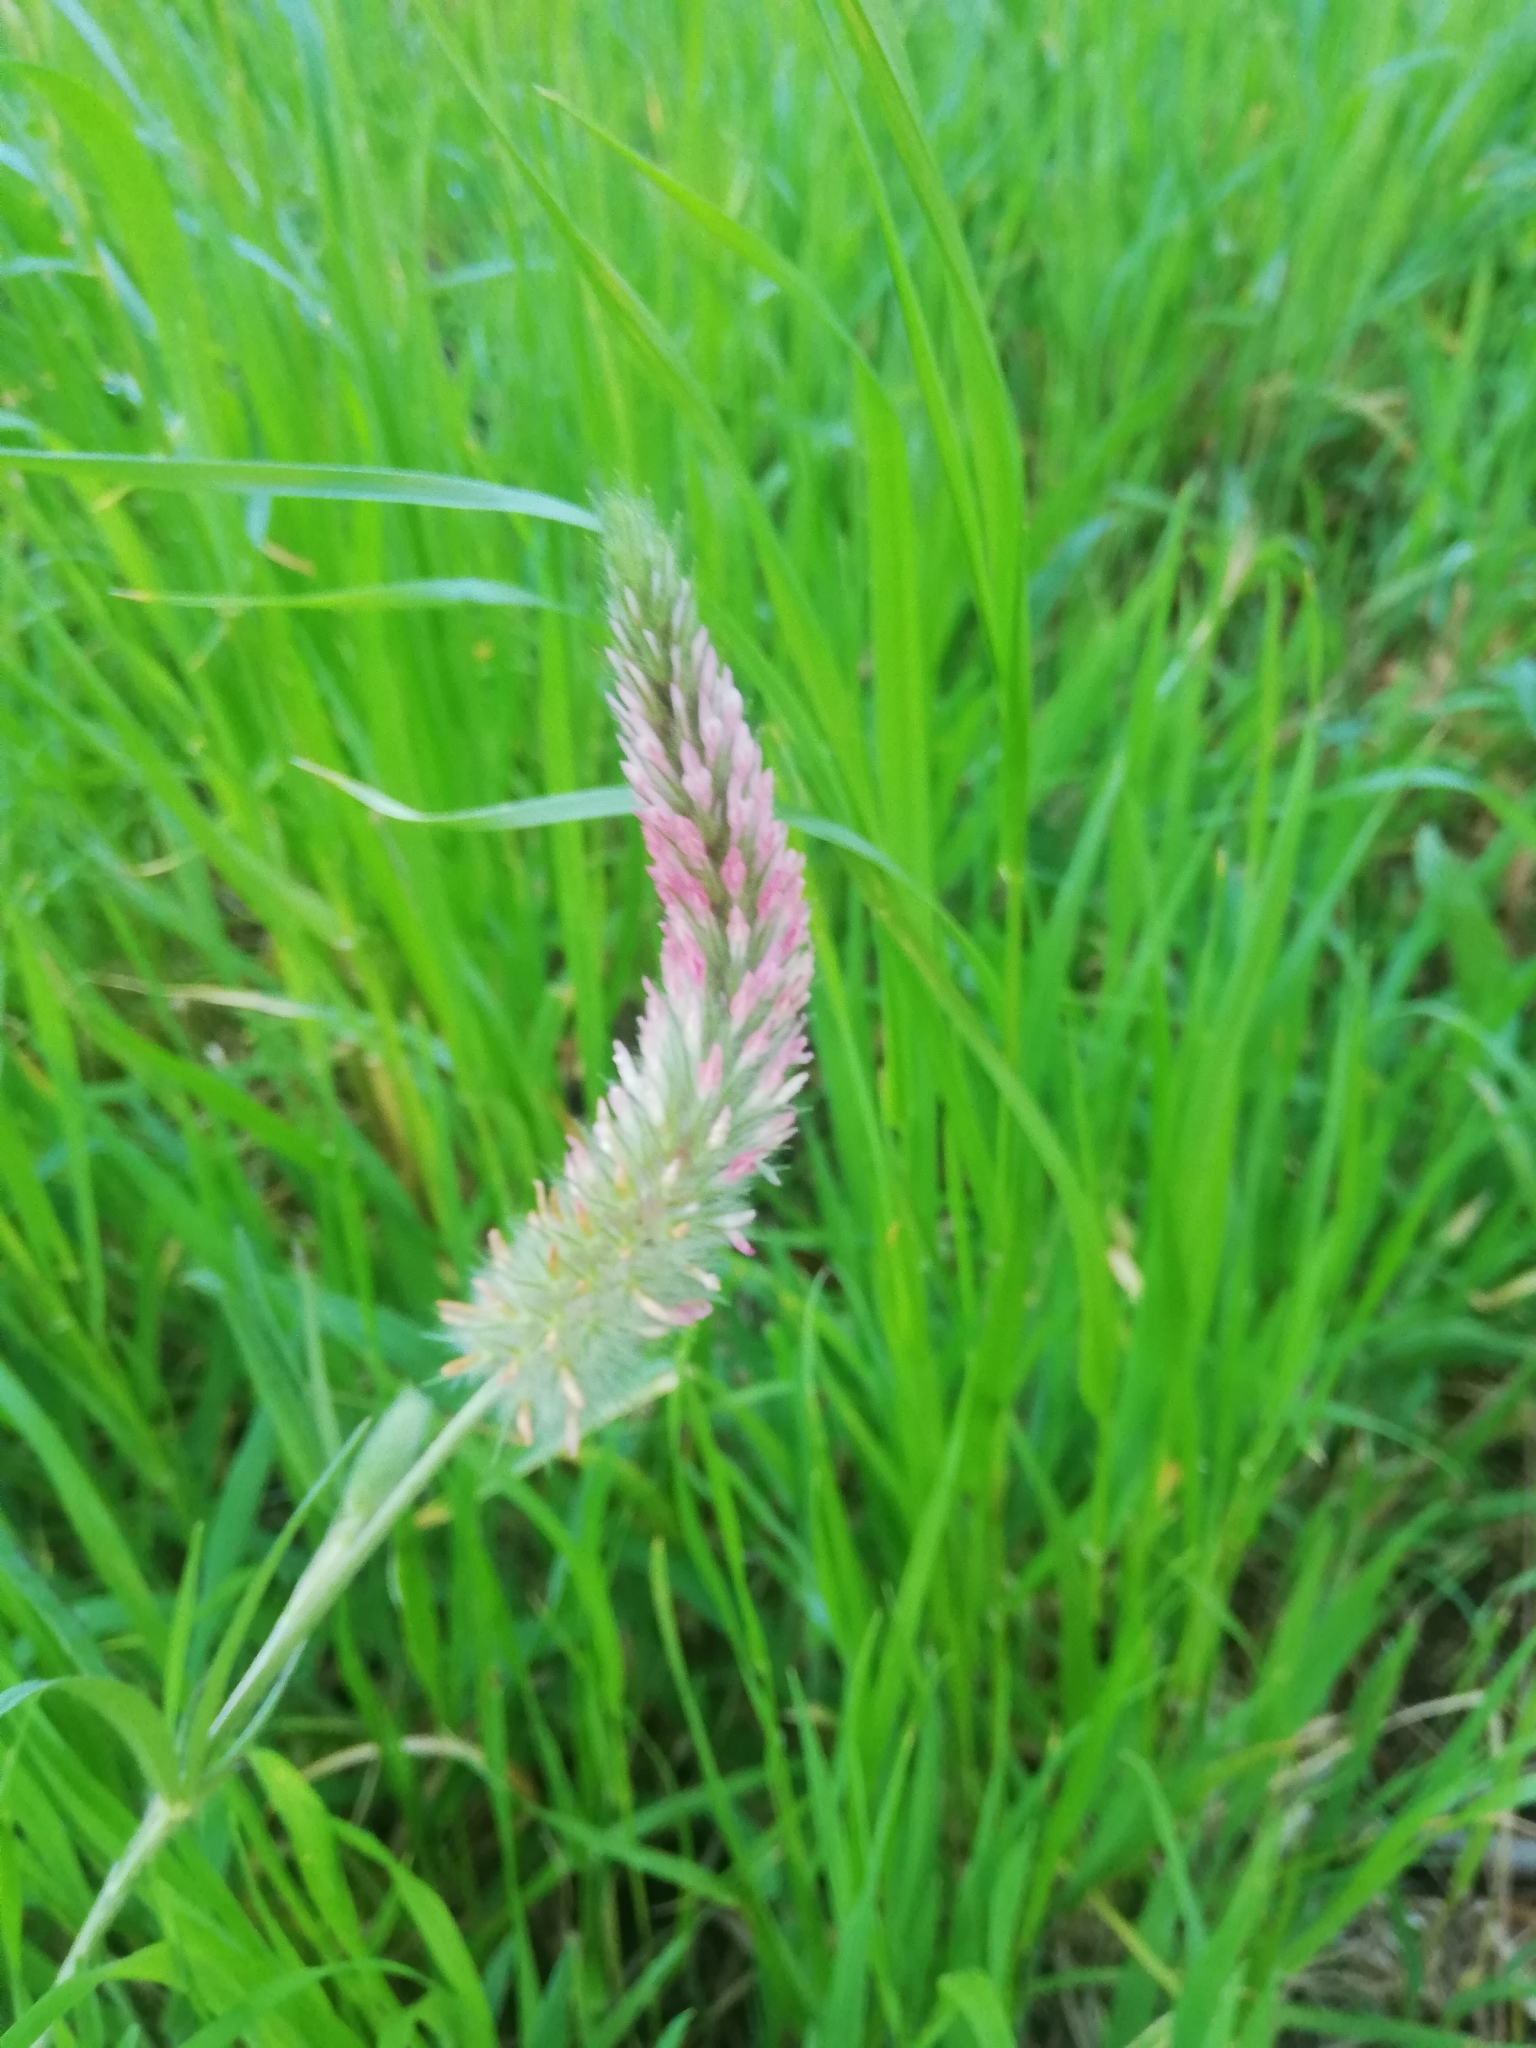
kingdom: Plantae
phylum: Tracheophyta
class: Magnoliopsida
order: Fabales
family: Fabaceae
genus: Trifolium
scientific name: Trifolium angustifolium
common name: Narrow clover
